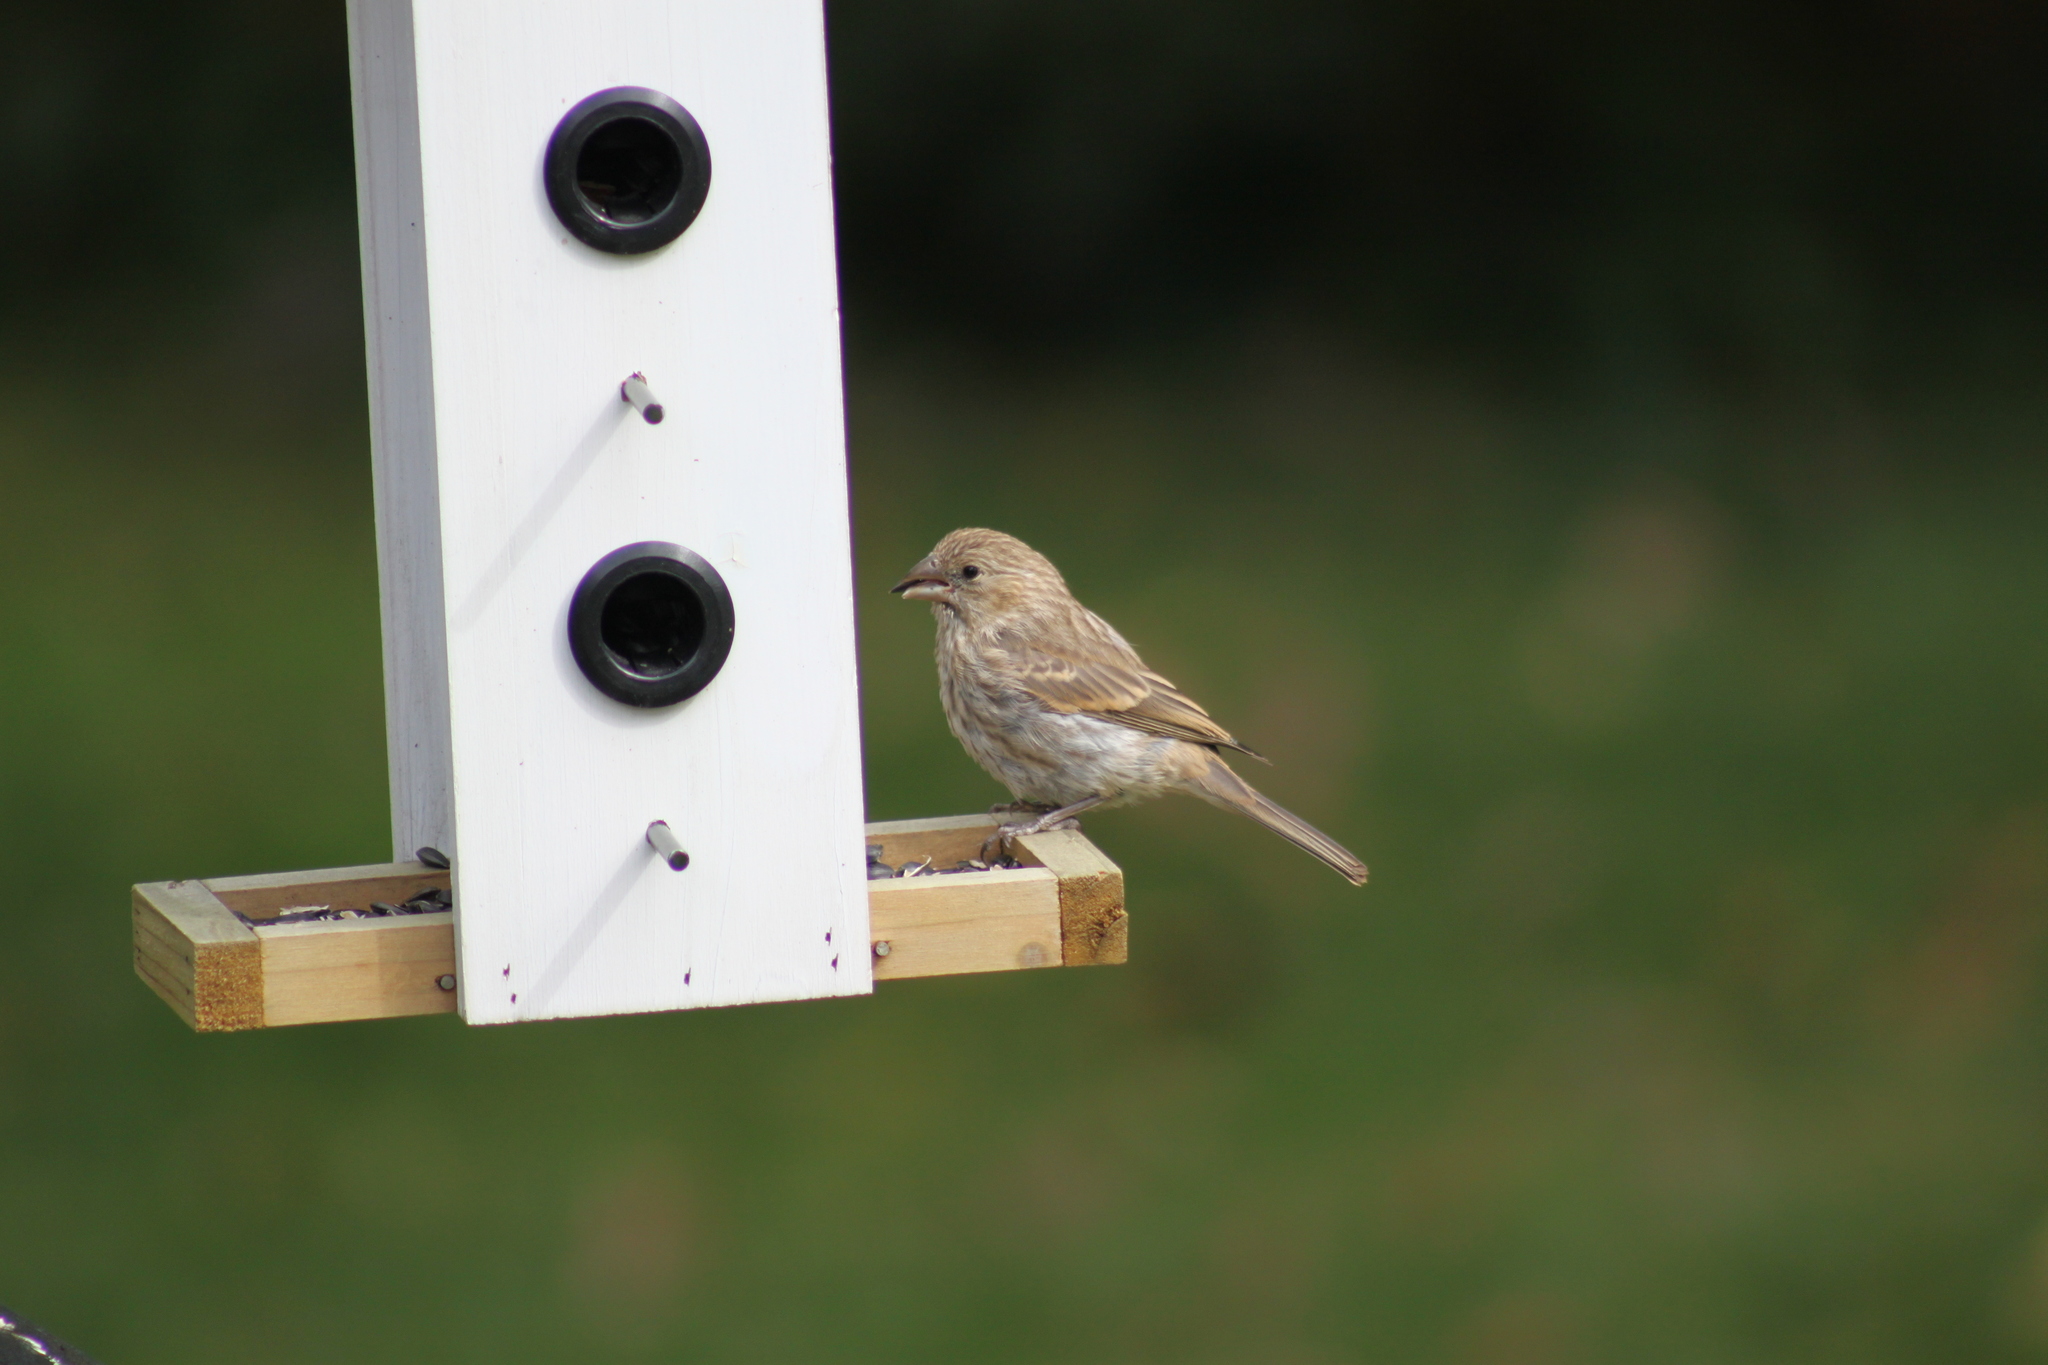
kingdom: Animalia
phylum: Chordata
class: Aves
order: Passeriformes
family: Fringillidae
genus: Haemorhous
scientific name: Haemorhous mexicanus
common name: House finch
